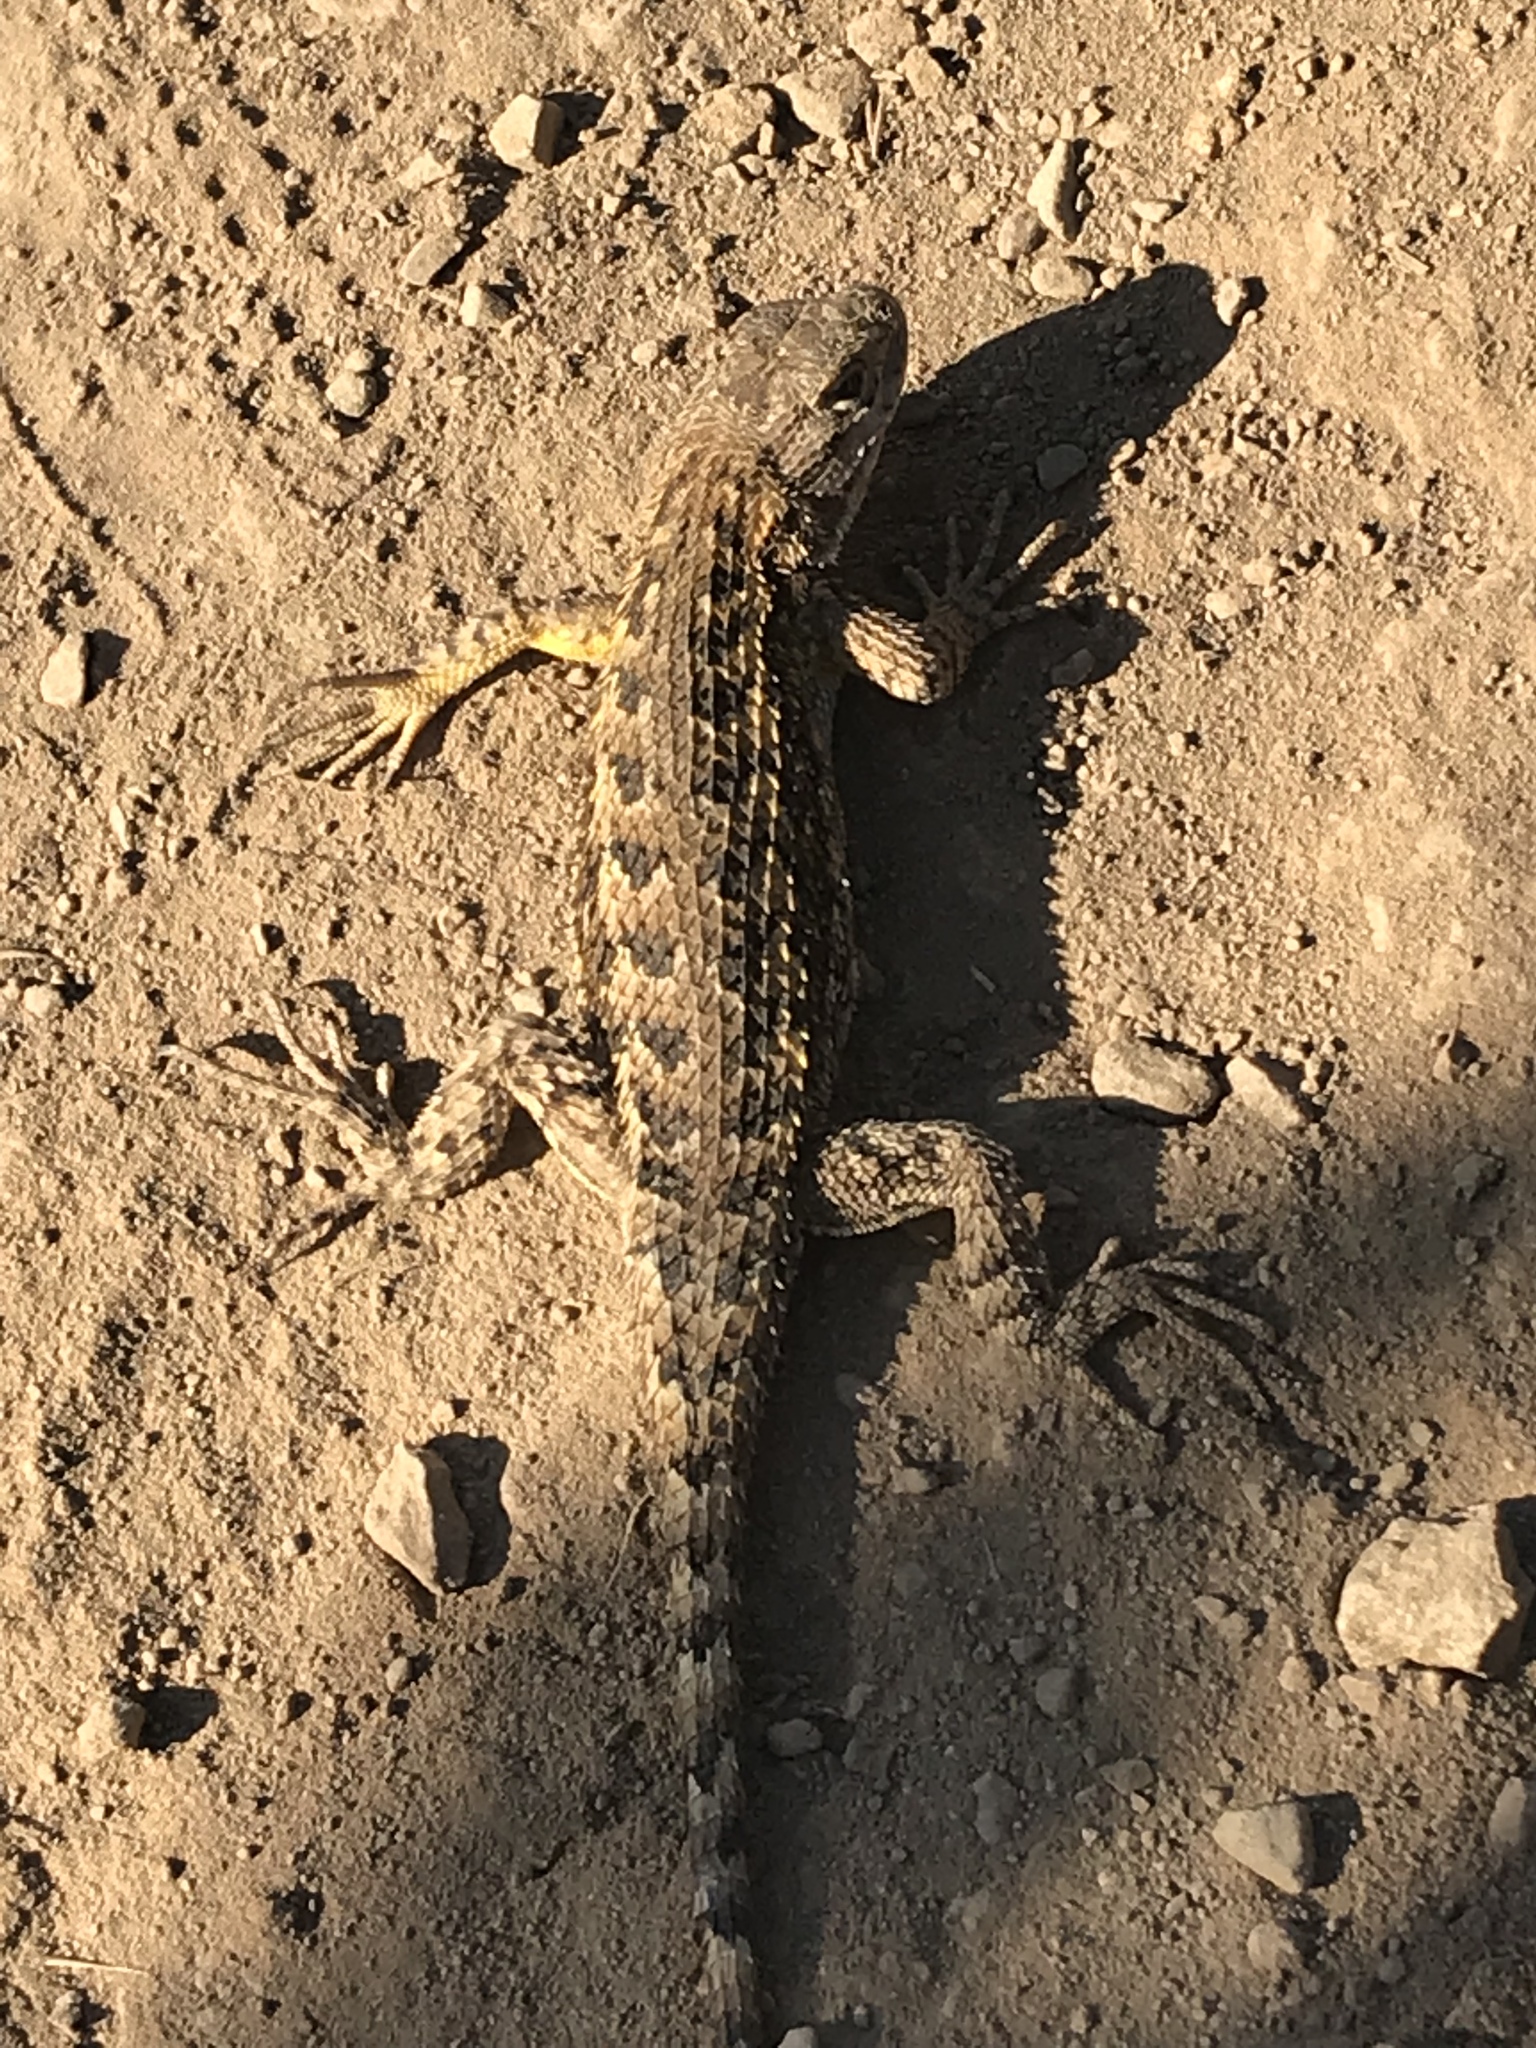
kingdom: Animalia
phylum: Chordata
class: Squamata
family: Phrynosomatidae
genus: Sceloporus
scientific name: Sceloporus occidentalis
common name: Western fence lizard
